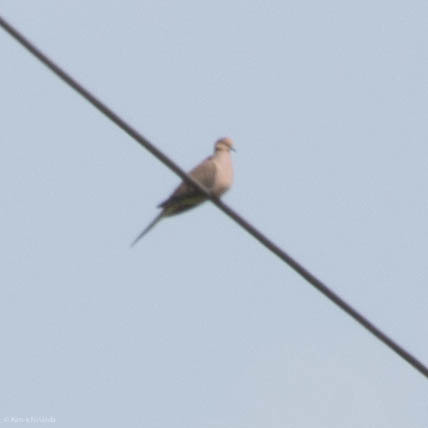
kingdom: Animalia
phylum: Chordata
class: Aves
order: Columbiformes
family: Columbidae
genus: Zenaida
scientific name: Zenaida macroura
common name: Mourning dove
